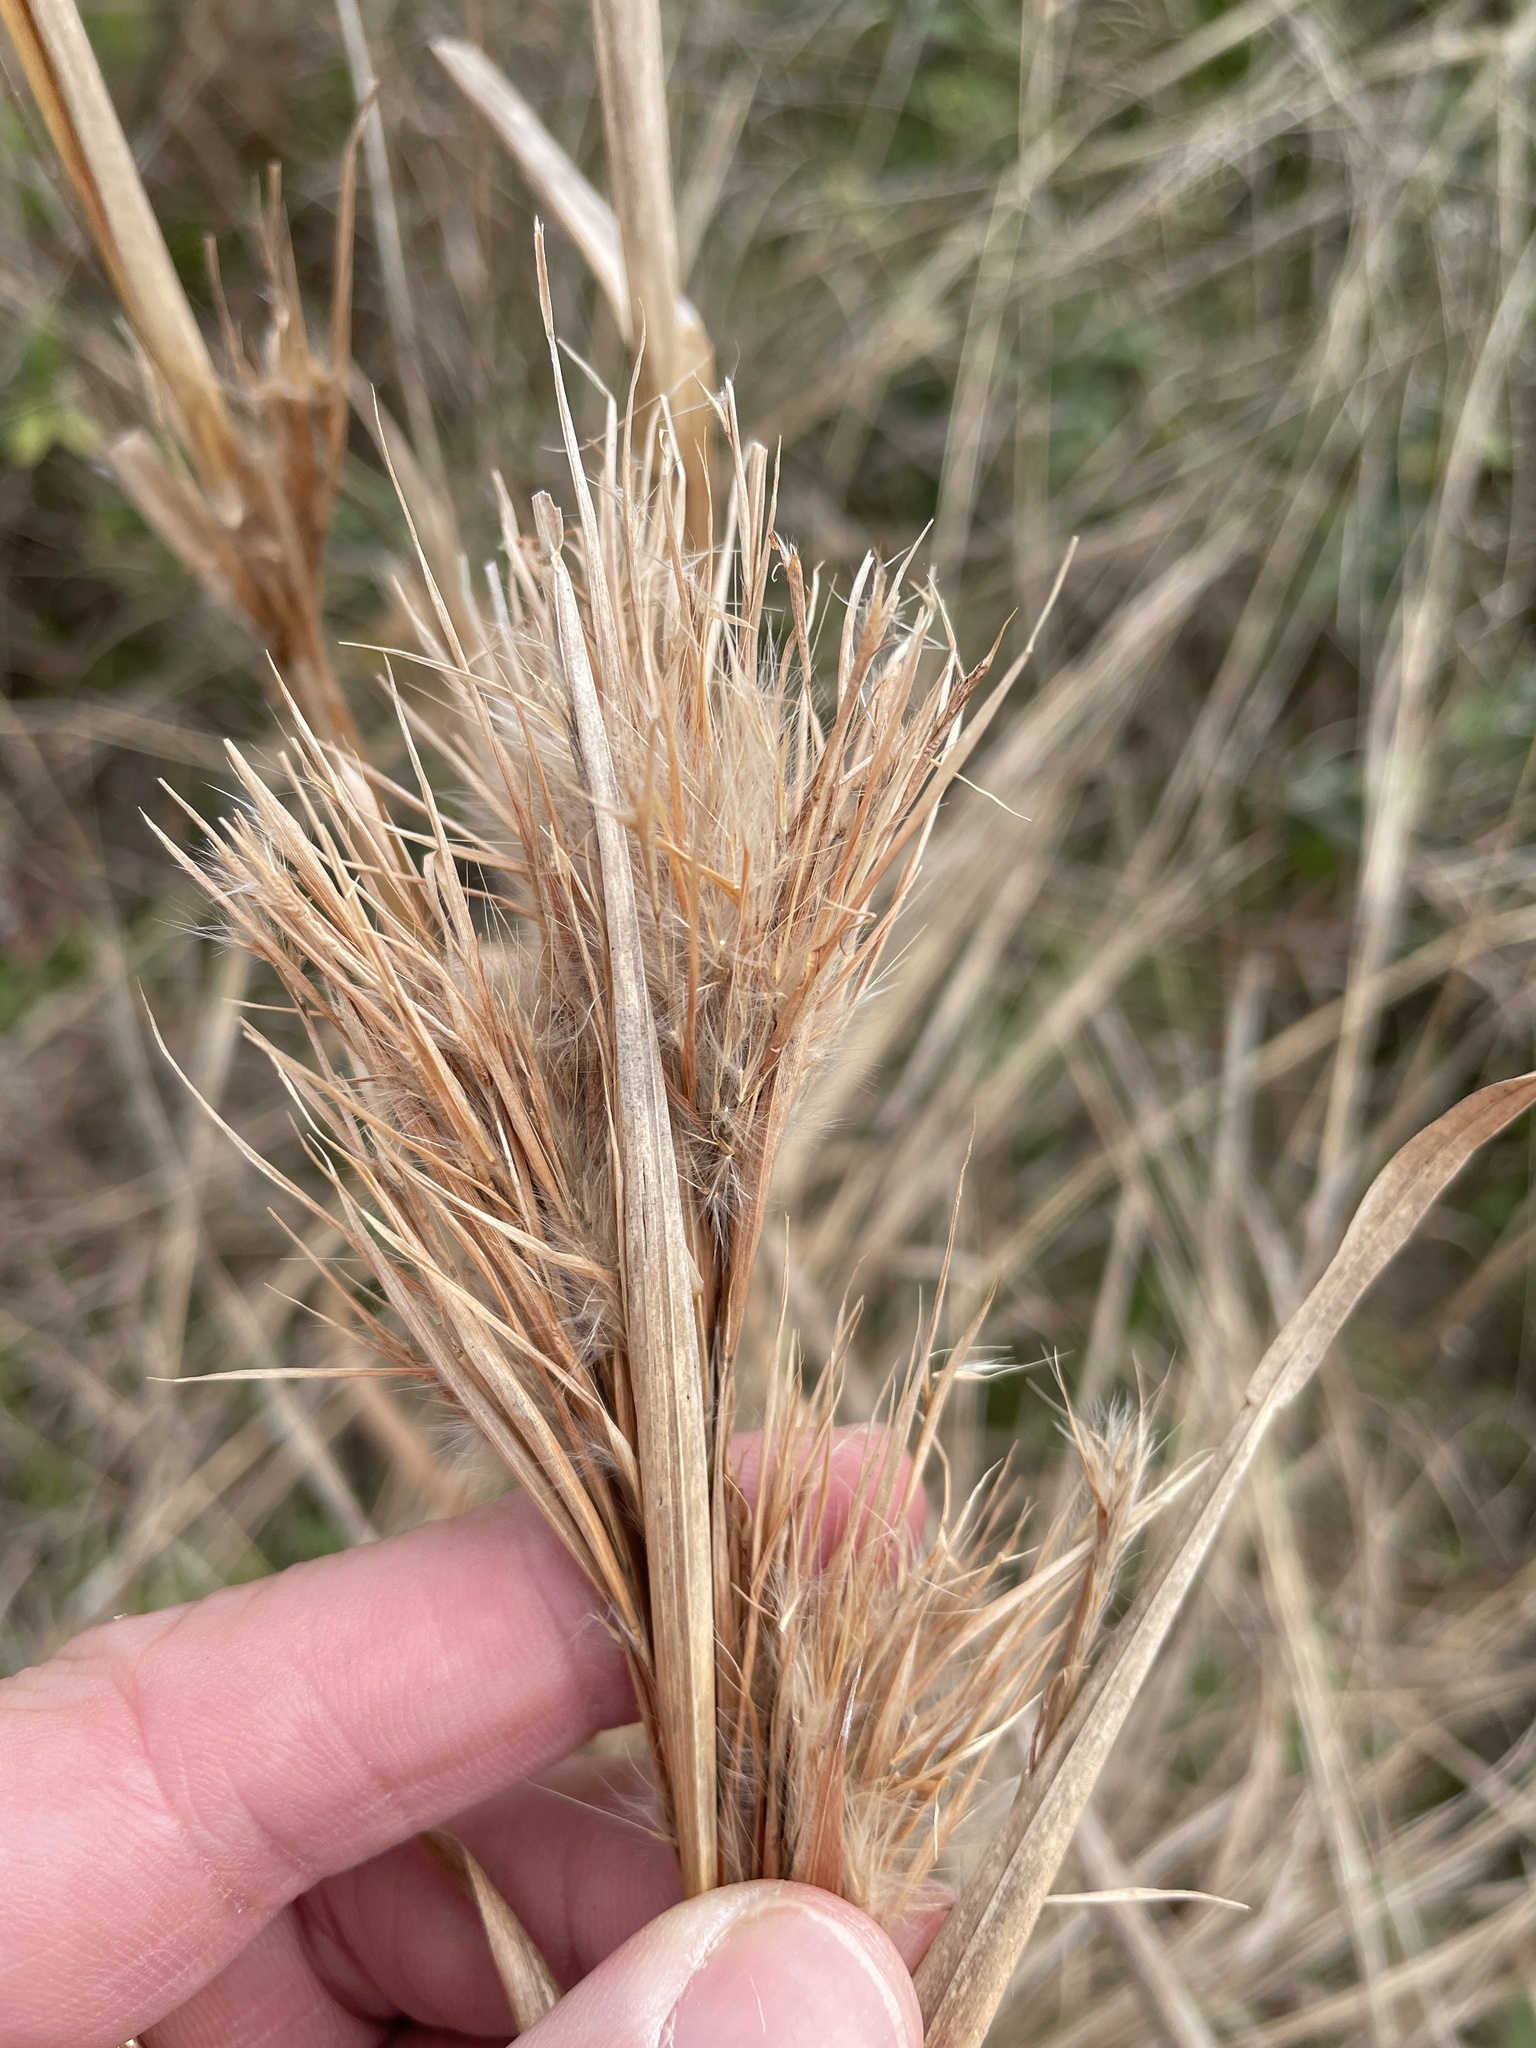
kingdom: Plantae
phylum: Tracheophyta
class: Liliopsida
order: Poales
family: Poaceae
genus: Andropogon
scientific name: Andropogon tenuispatheus
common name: Bushy bluestem
